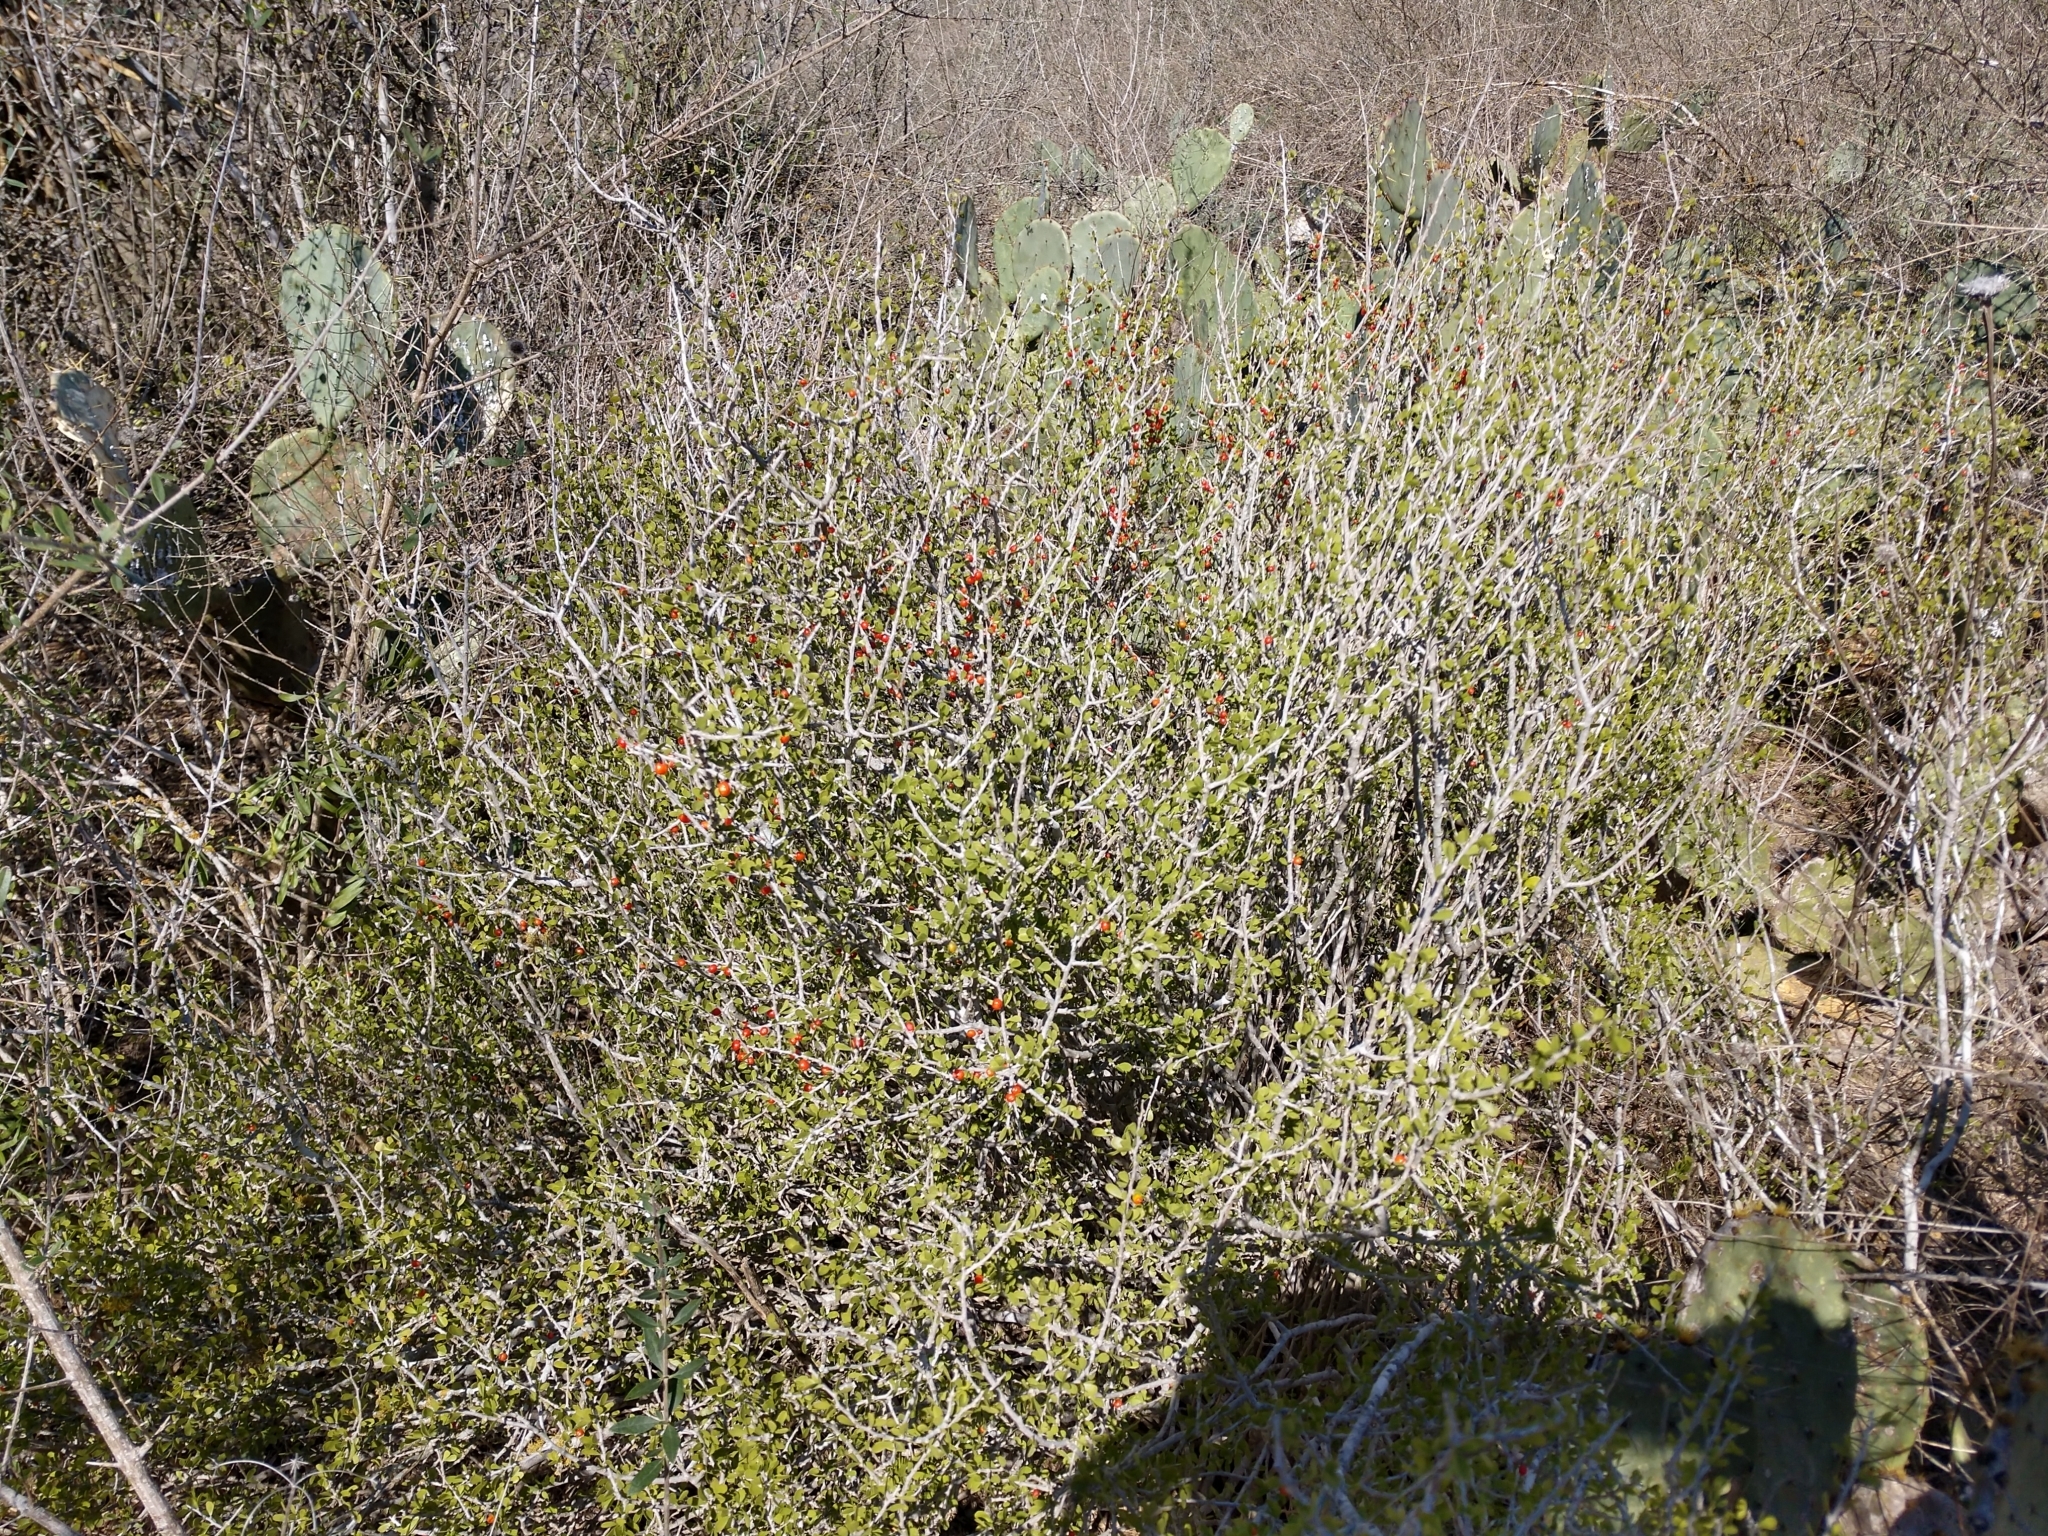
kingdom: Plantae
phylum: Tracheophyta
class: Magnoliopsida
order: Celastrales
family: Celastraceae
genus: Schaefferia
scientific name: Schaefferia cuneifolia
